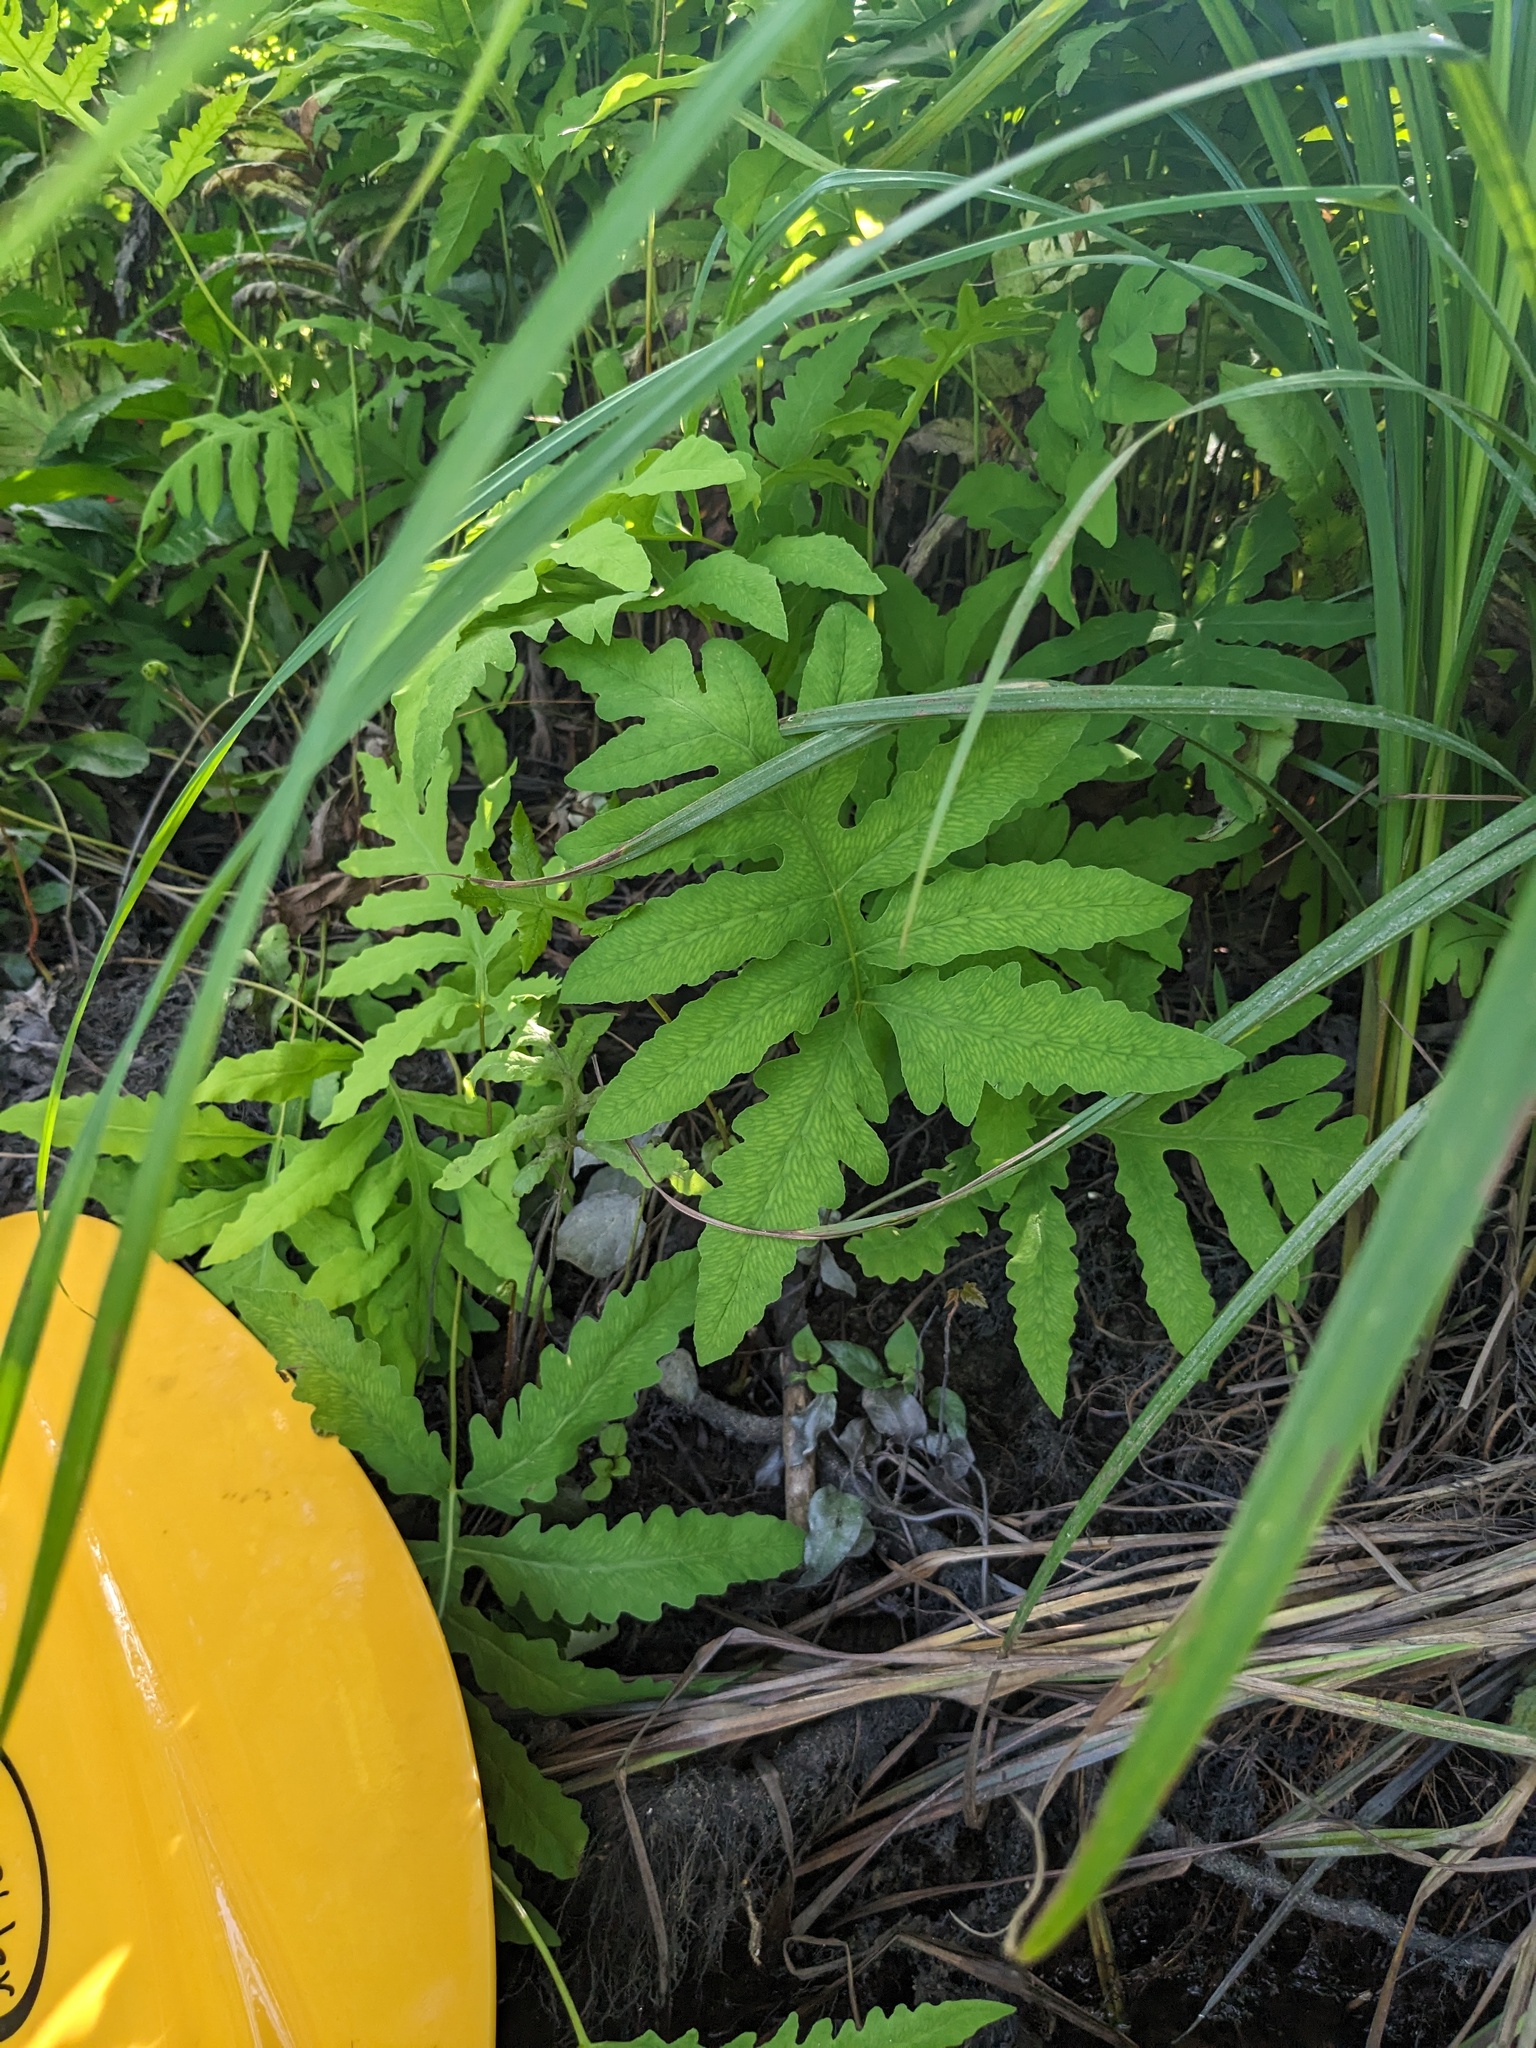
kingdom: Plantae
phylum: Tracheophyta
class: Polypodiopsida
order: Polypodiales
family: Onocleaceae
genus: Onoclea
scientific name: Onoclea sensibilis
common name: Sensitive fern
